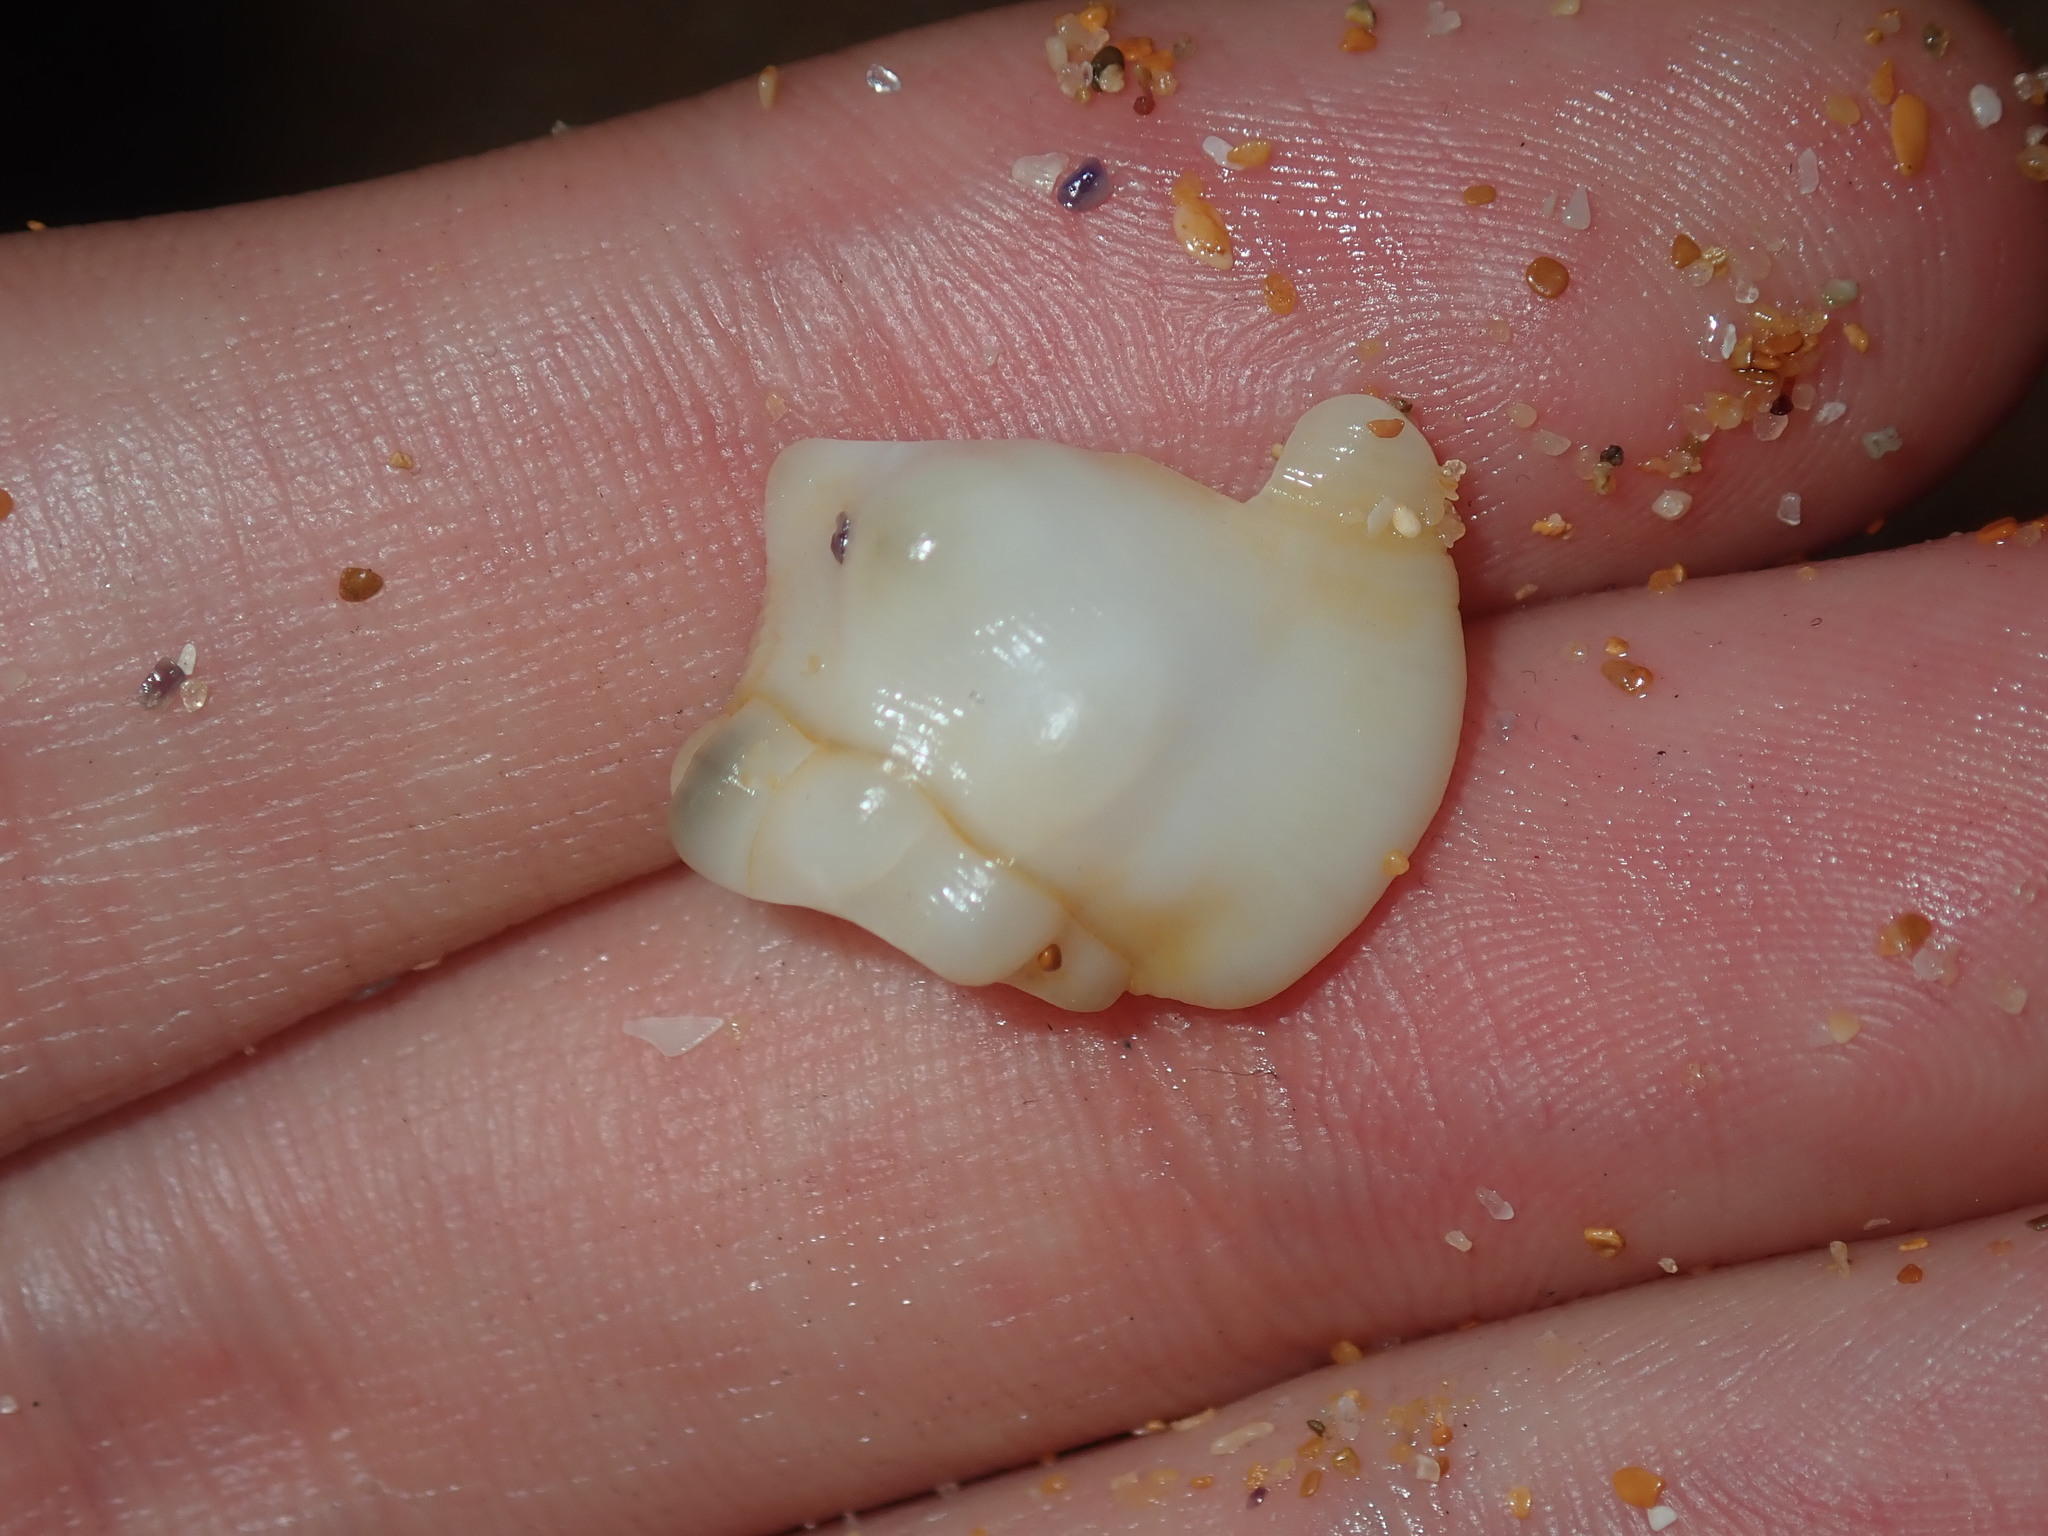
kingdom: Animalia
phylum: Mollusca
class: Gastropoda
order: Littorinimorpha
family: Cymatiidae
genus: Austrosassia
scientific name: Austrosassia parkinsonia
